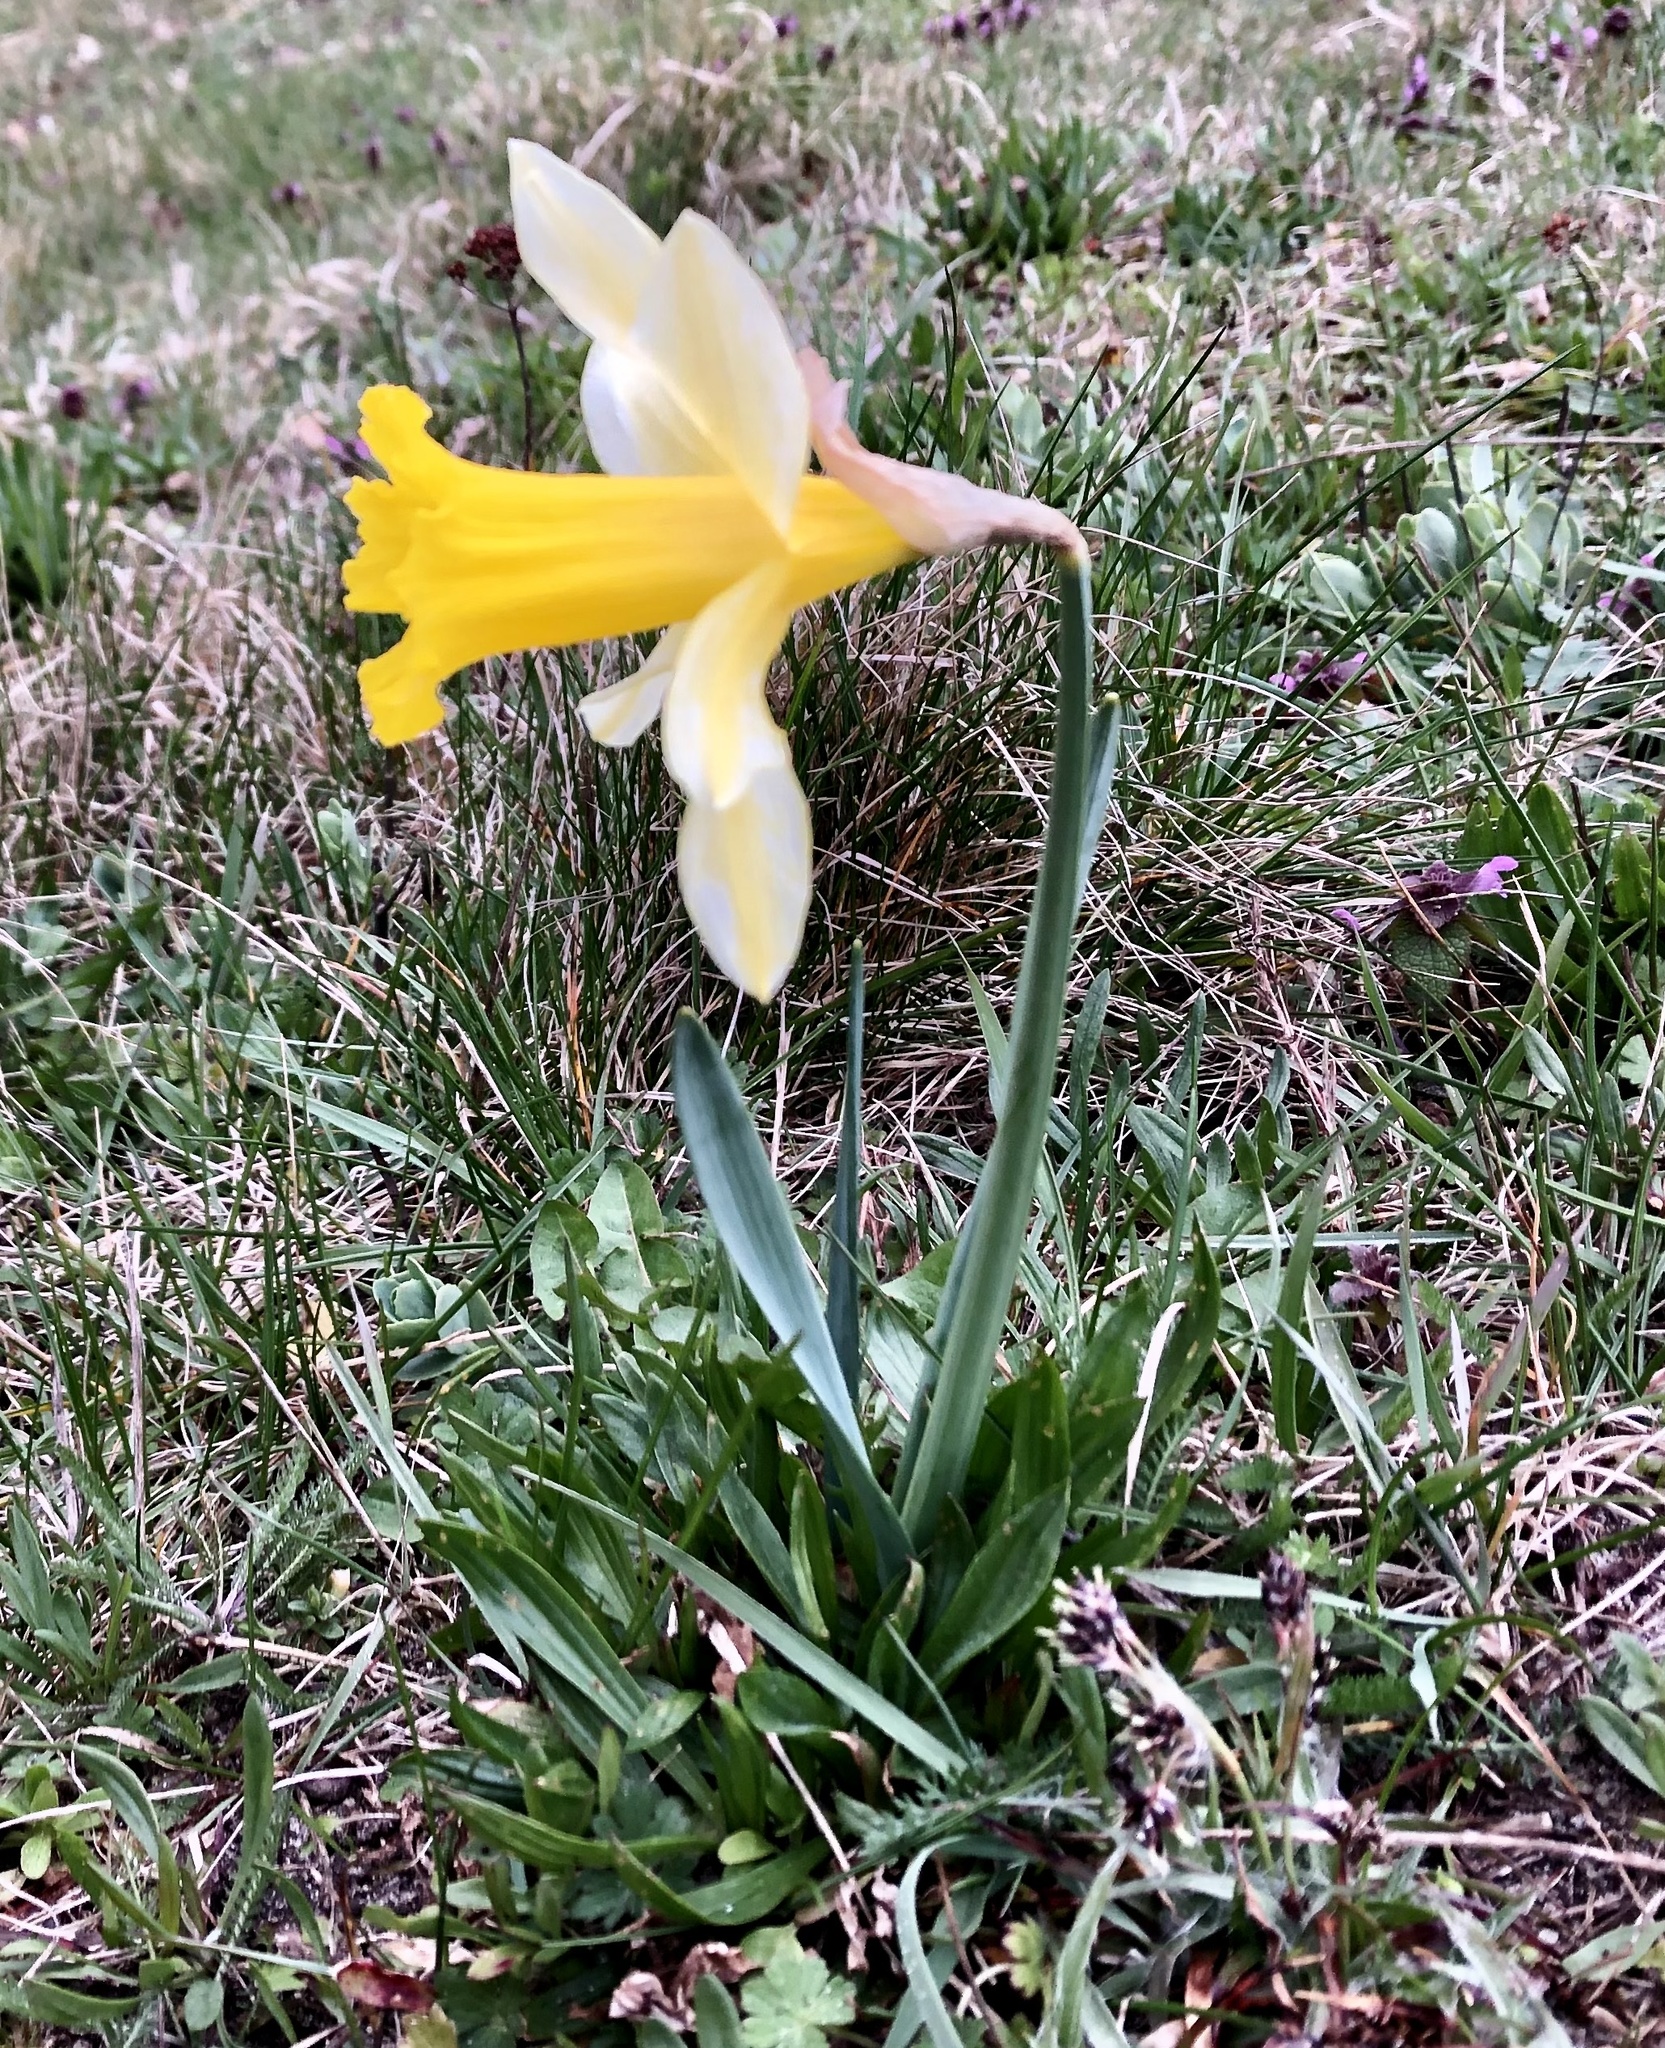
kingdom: Plantae
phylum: Tracheophyta
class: Liliopsida
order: Asparagales
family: Amaryllidaceae
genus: Narcissus
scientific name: Narcissus pseudonarcissus
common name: Daffodil
